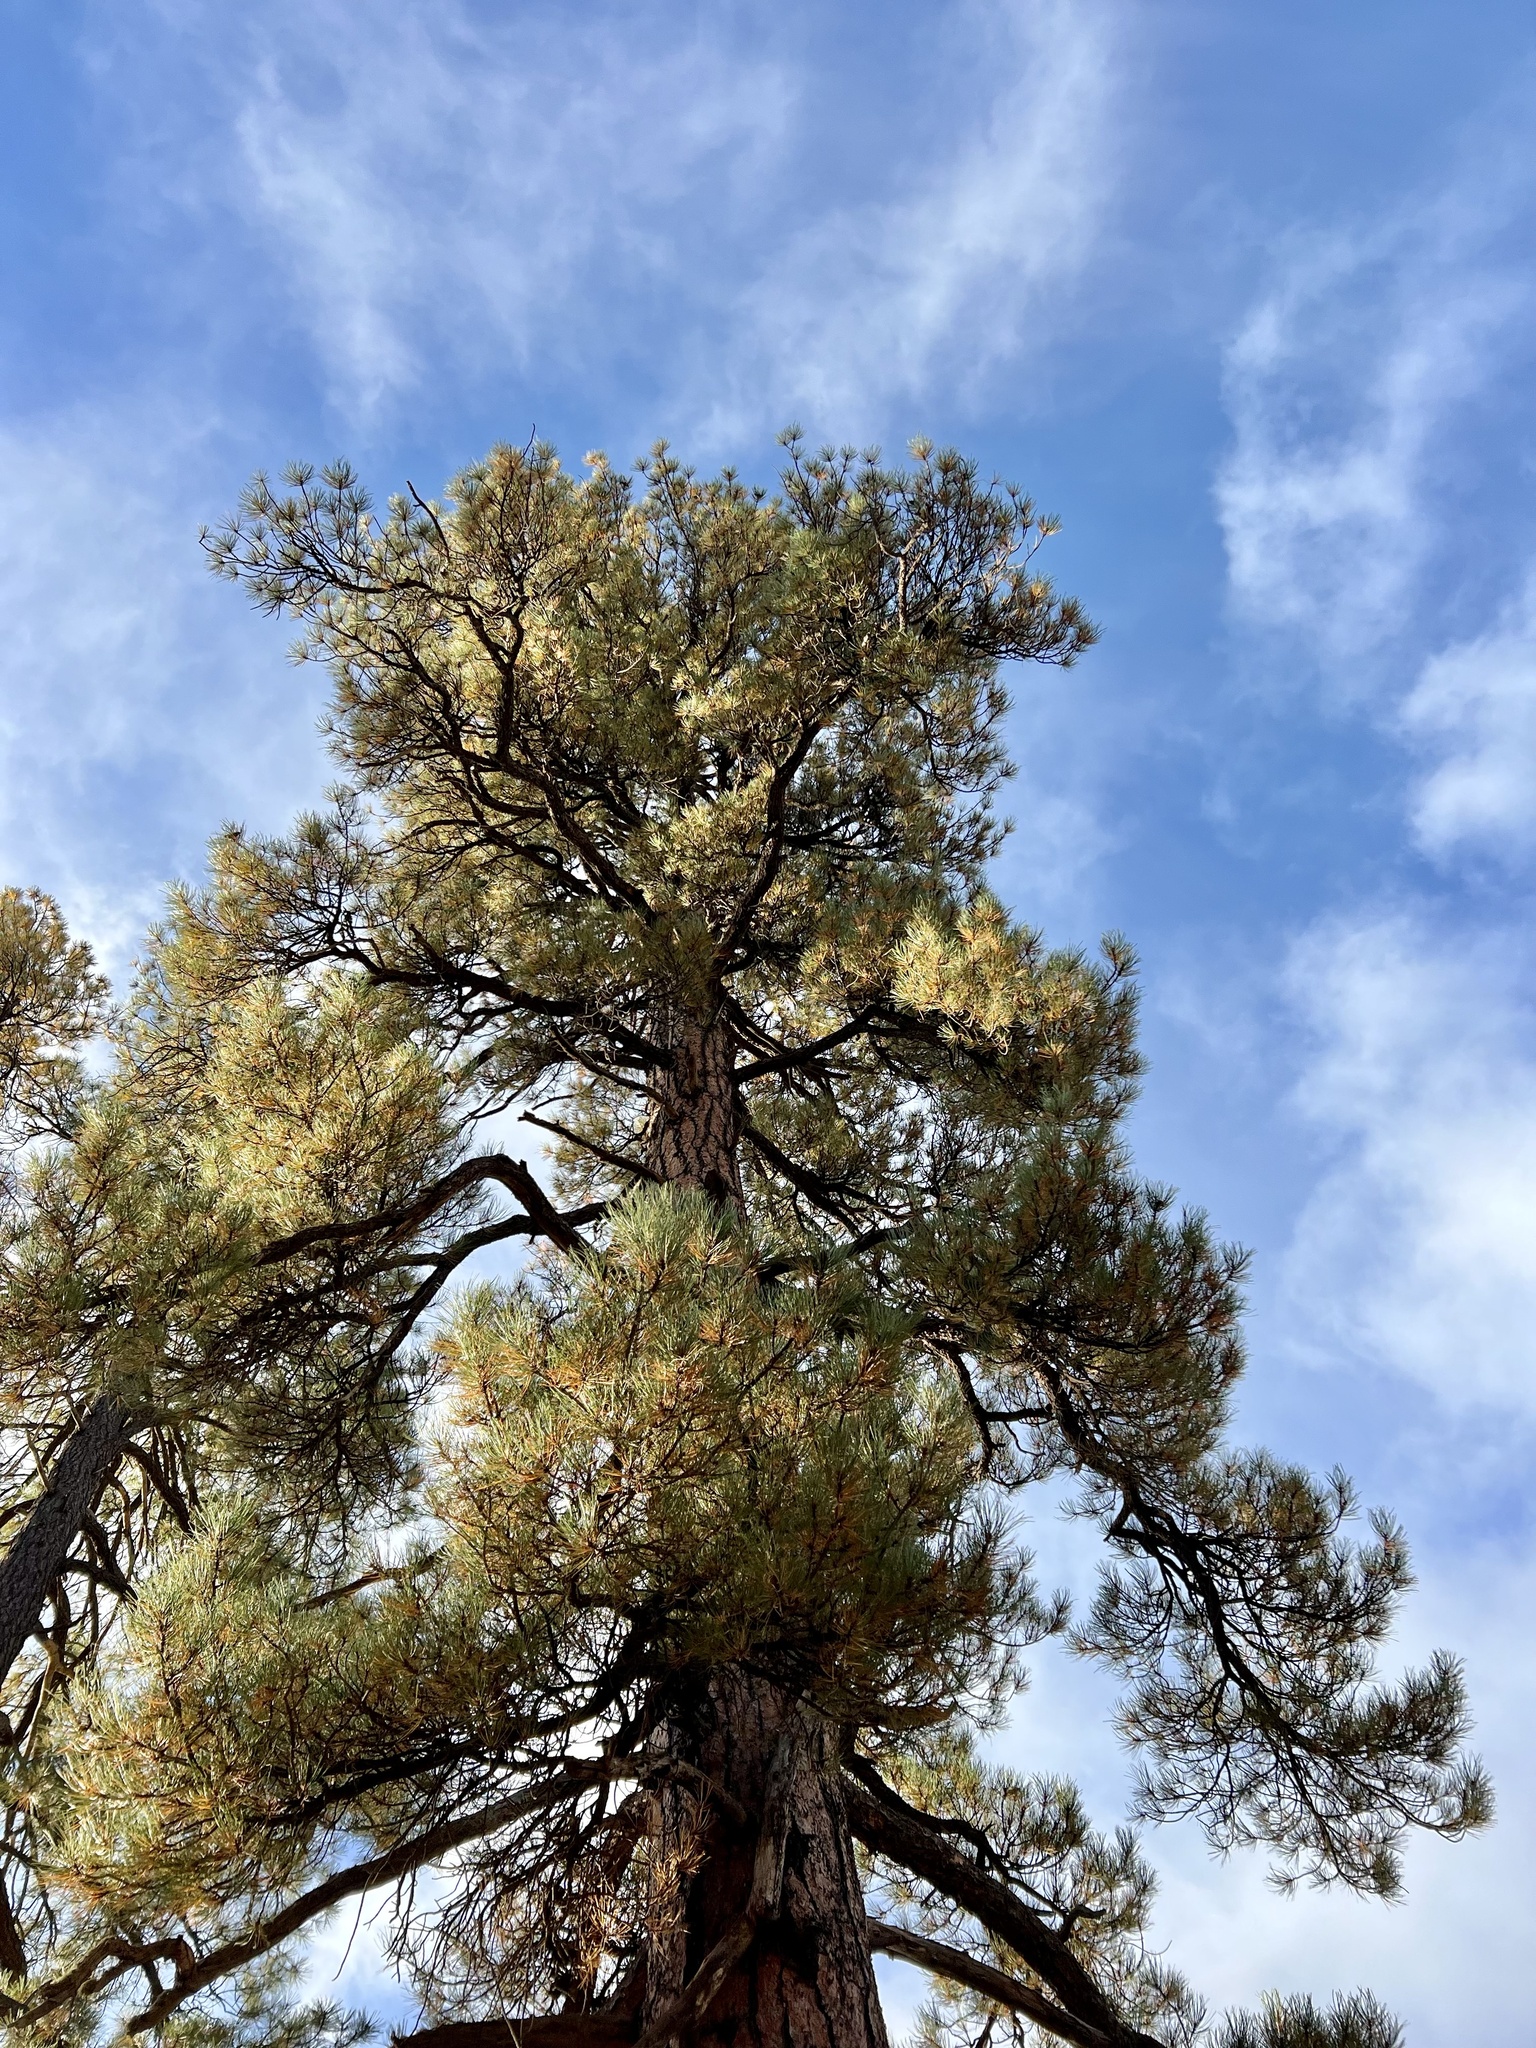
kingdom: Plantae
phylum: Tracheophyta
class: Pinopsida
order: Pinales
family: Pinaceae
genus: Pinus
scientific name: Pinus ponderosa
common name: Western yellow-pine
